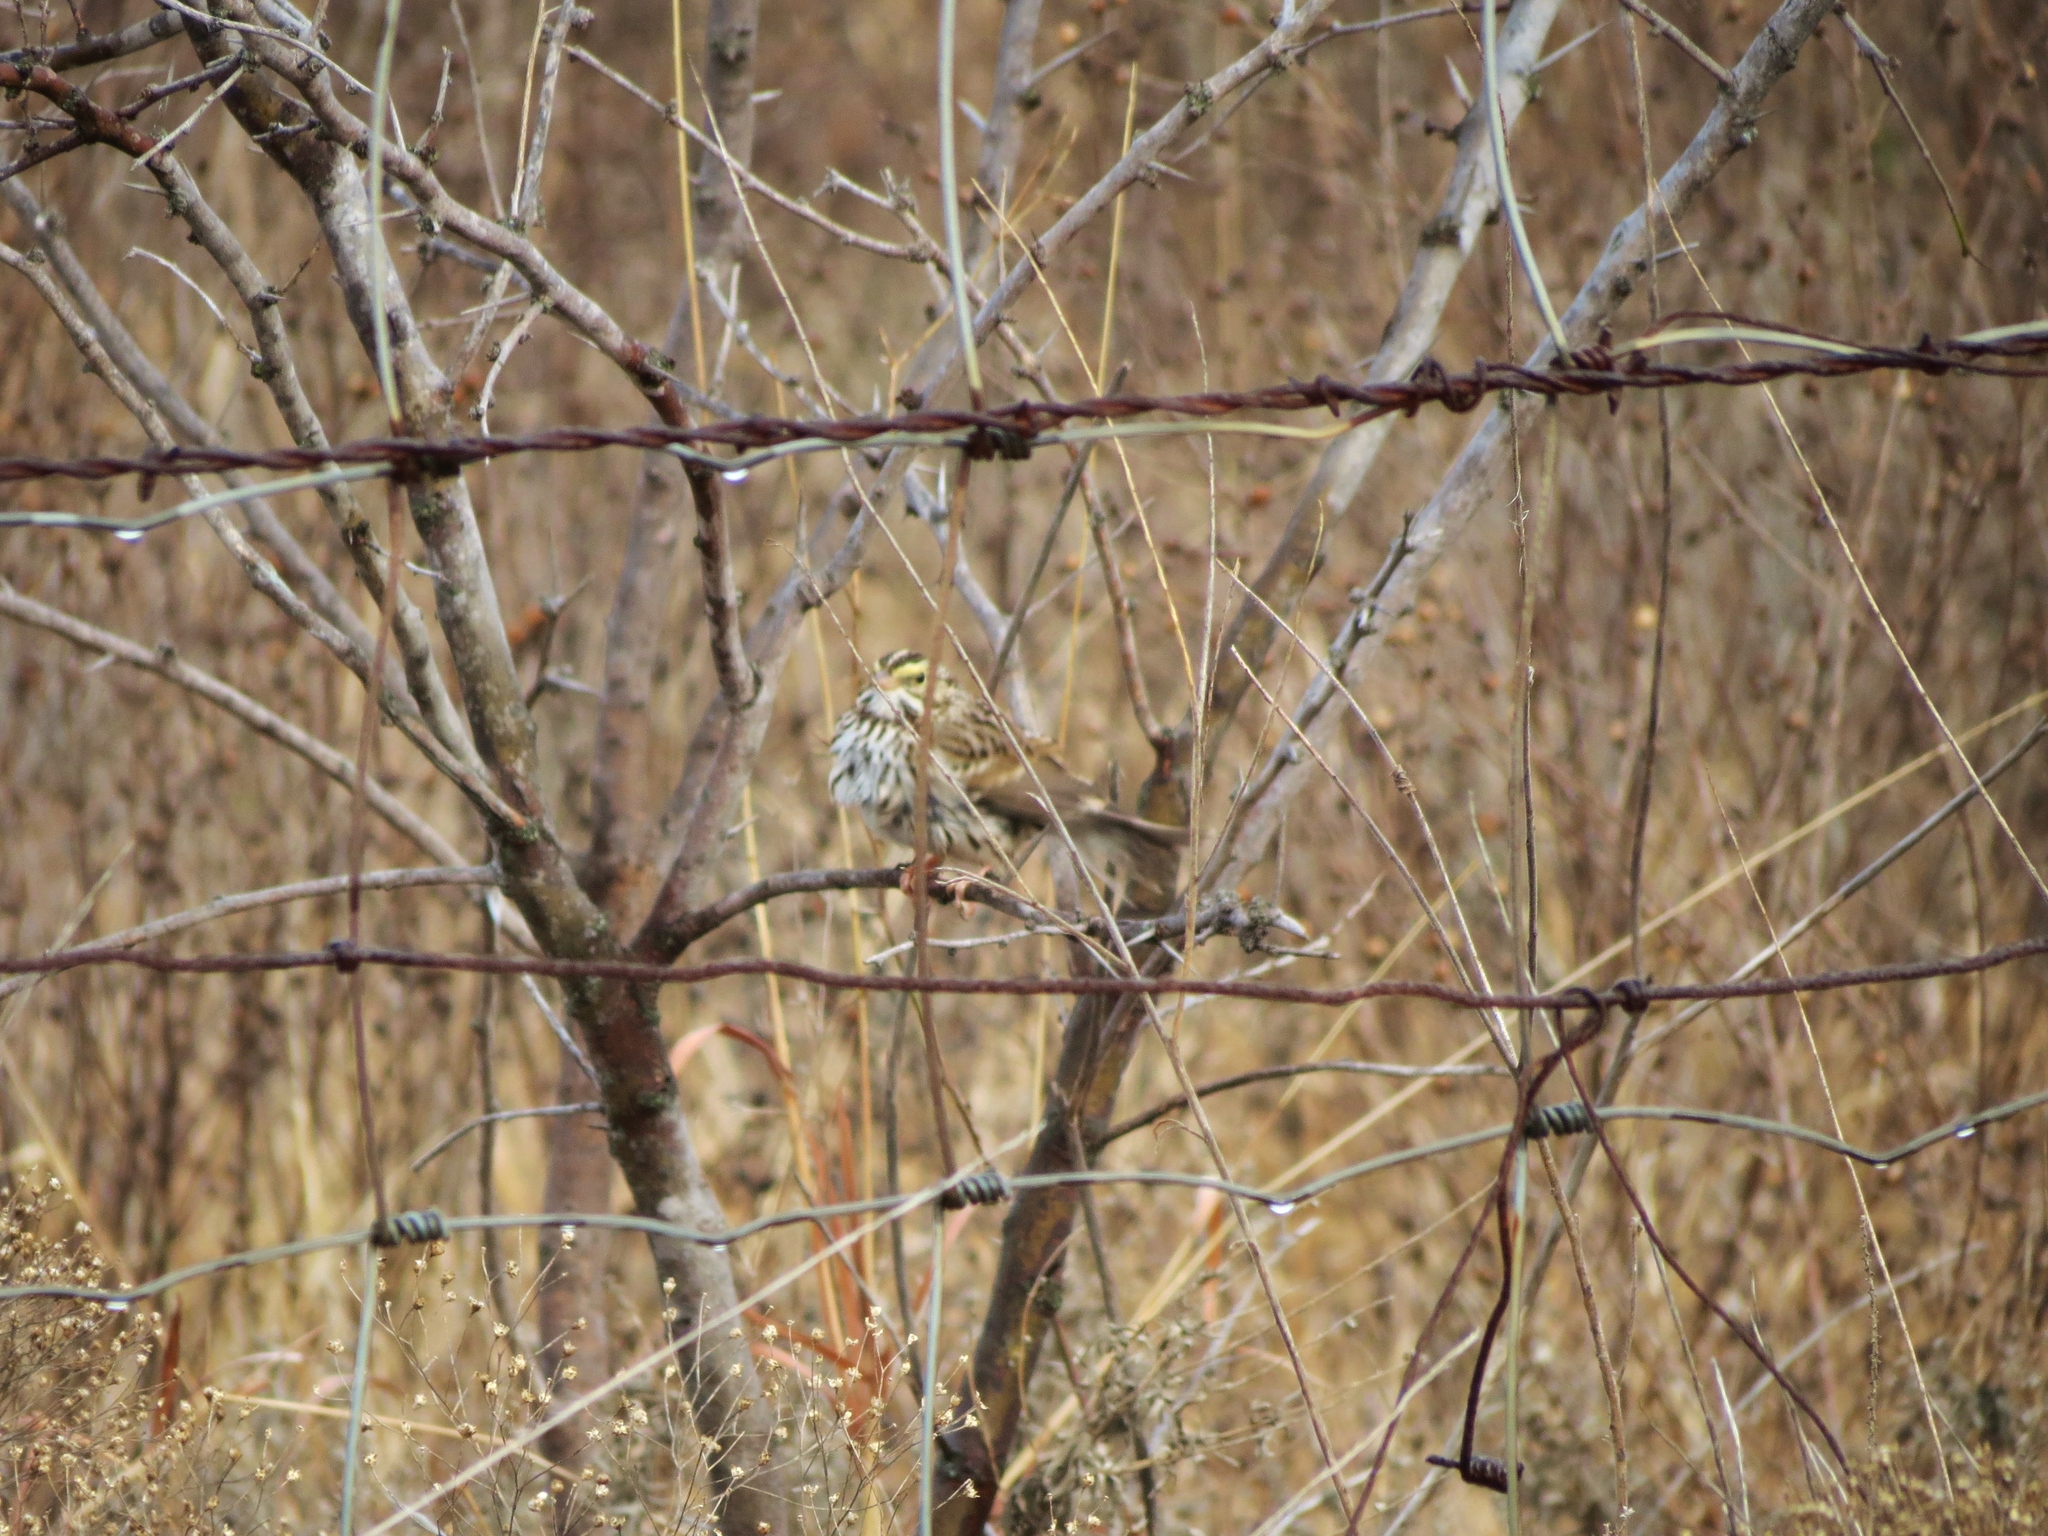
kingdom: Animalia
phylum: Chordata
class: Aves
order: Passeriformes
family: Passerellidae
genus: Passerculus
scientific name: Passerculus sandwichensis
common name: Savannah sparrow
